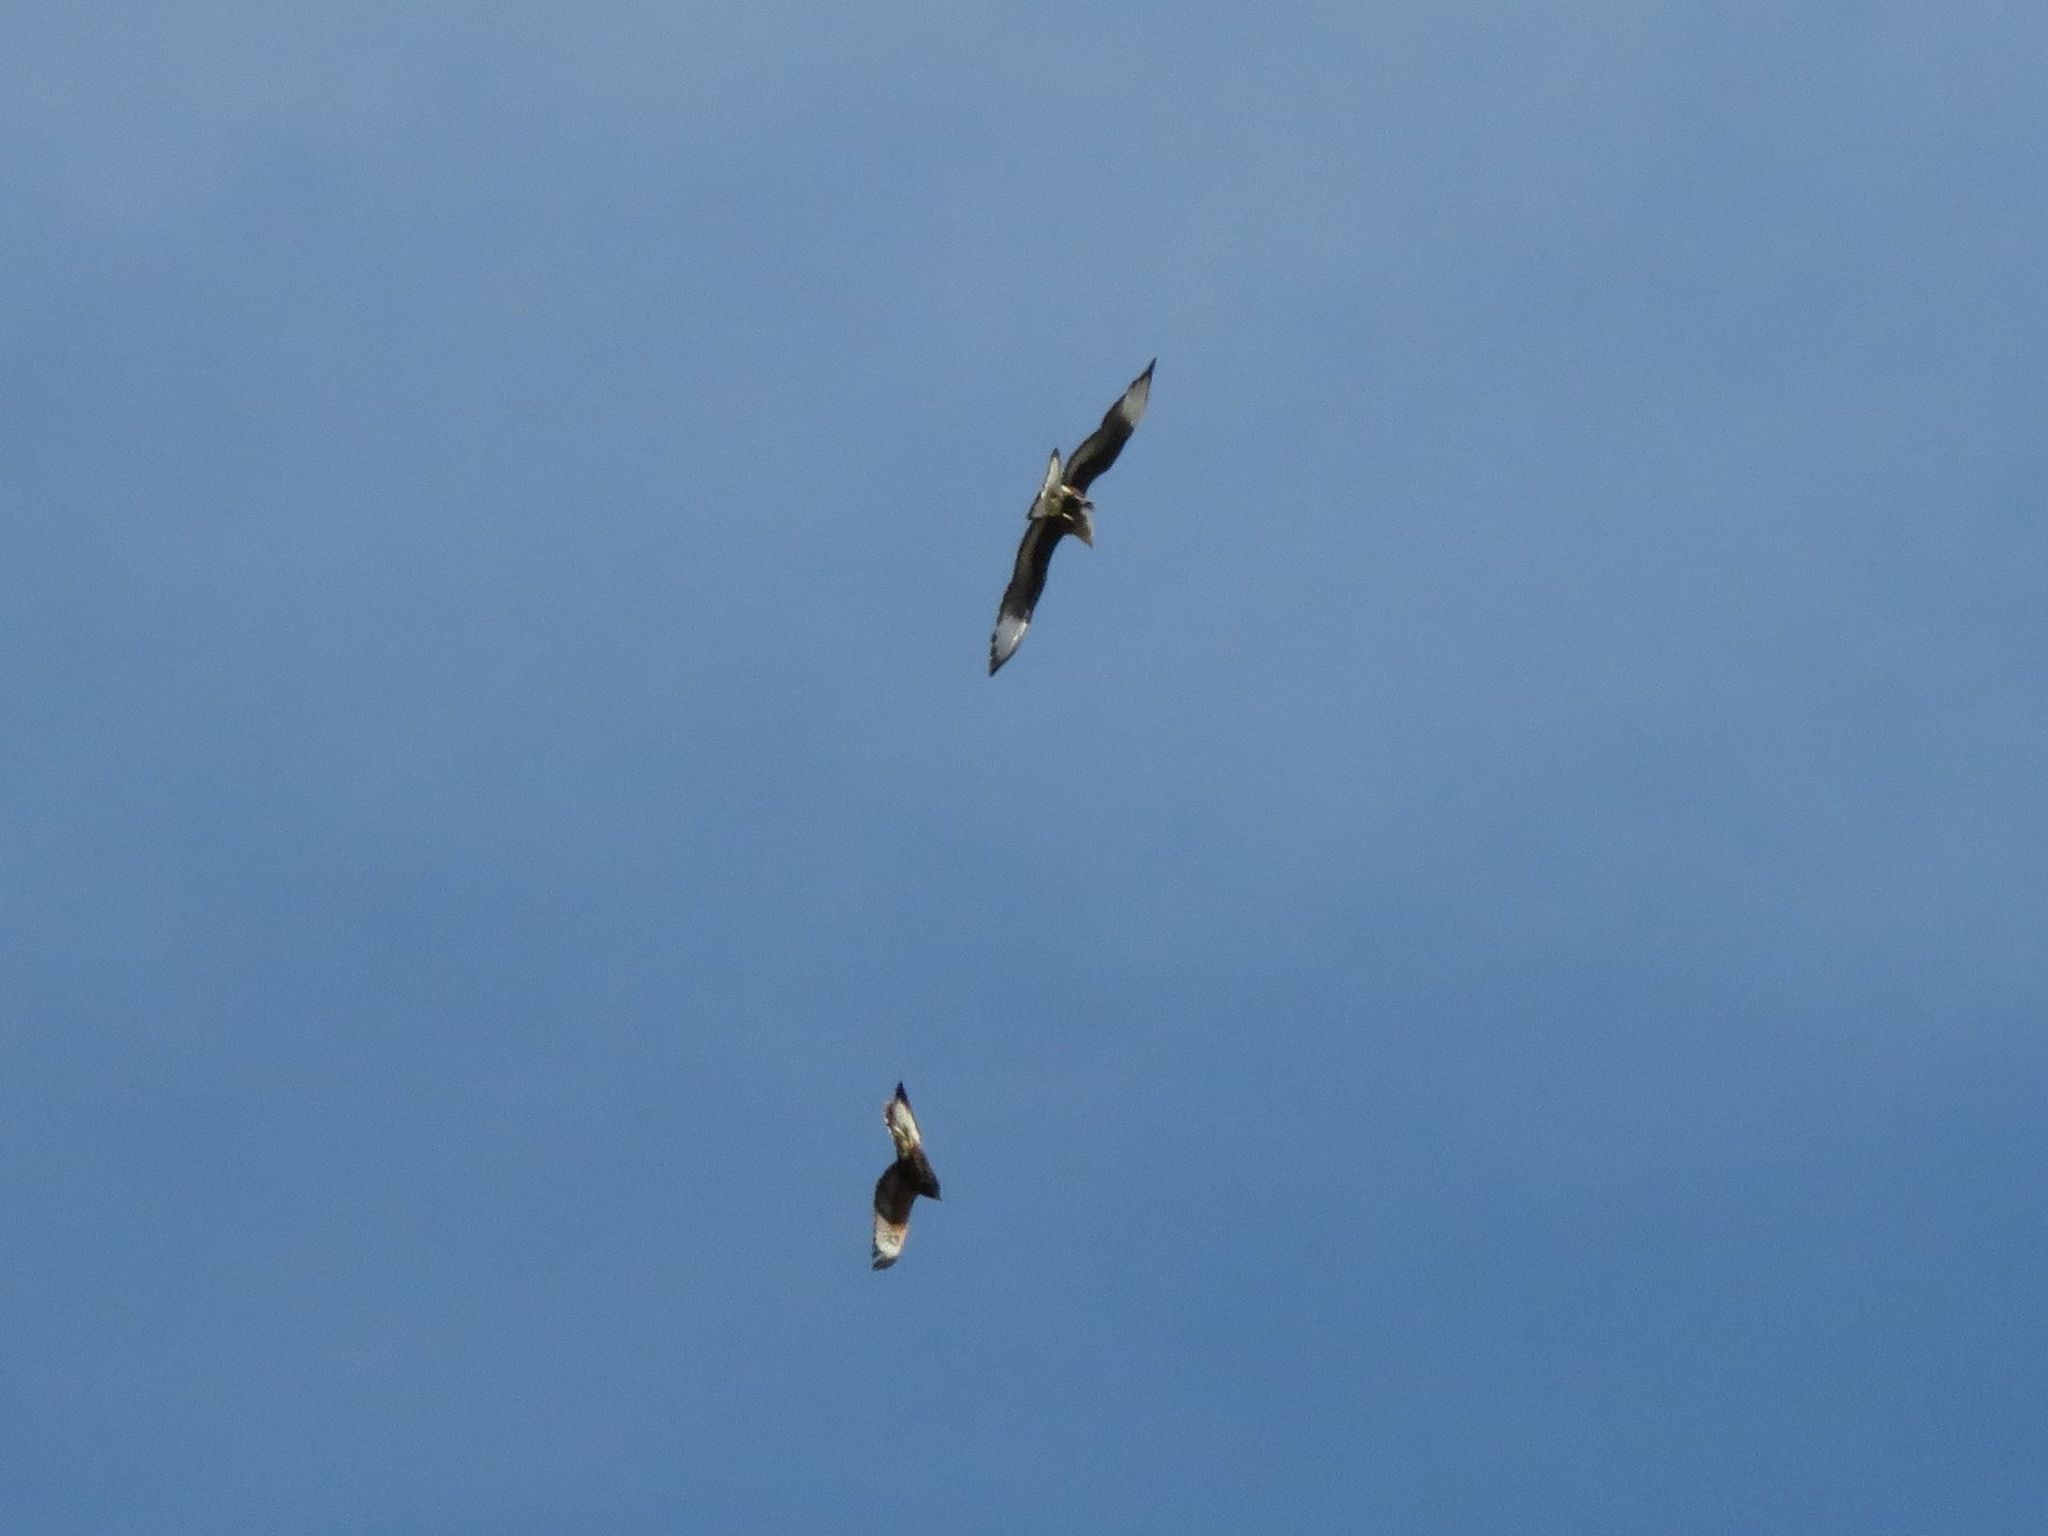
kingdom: Animalia
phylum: Chordata
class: Aves
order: Falconiformes
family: Falconidae
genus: Caracara
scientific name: Caracara plancus
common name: Southern caracara
